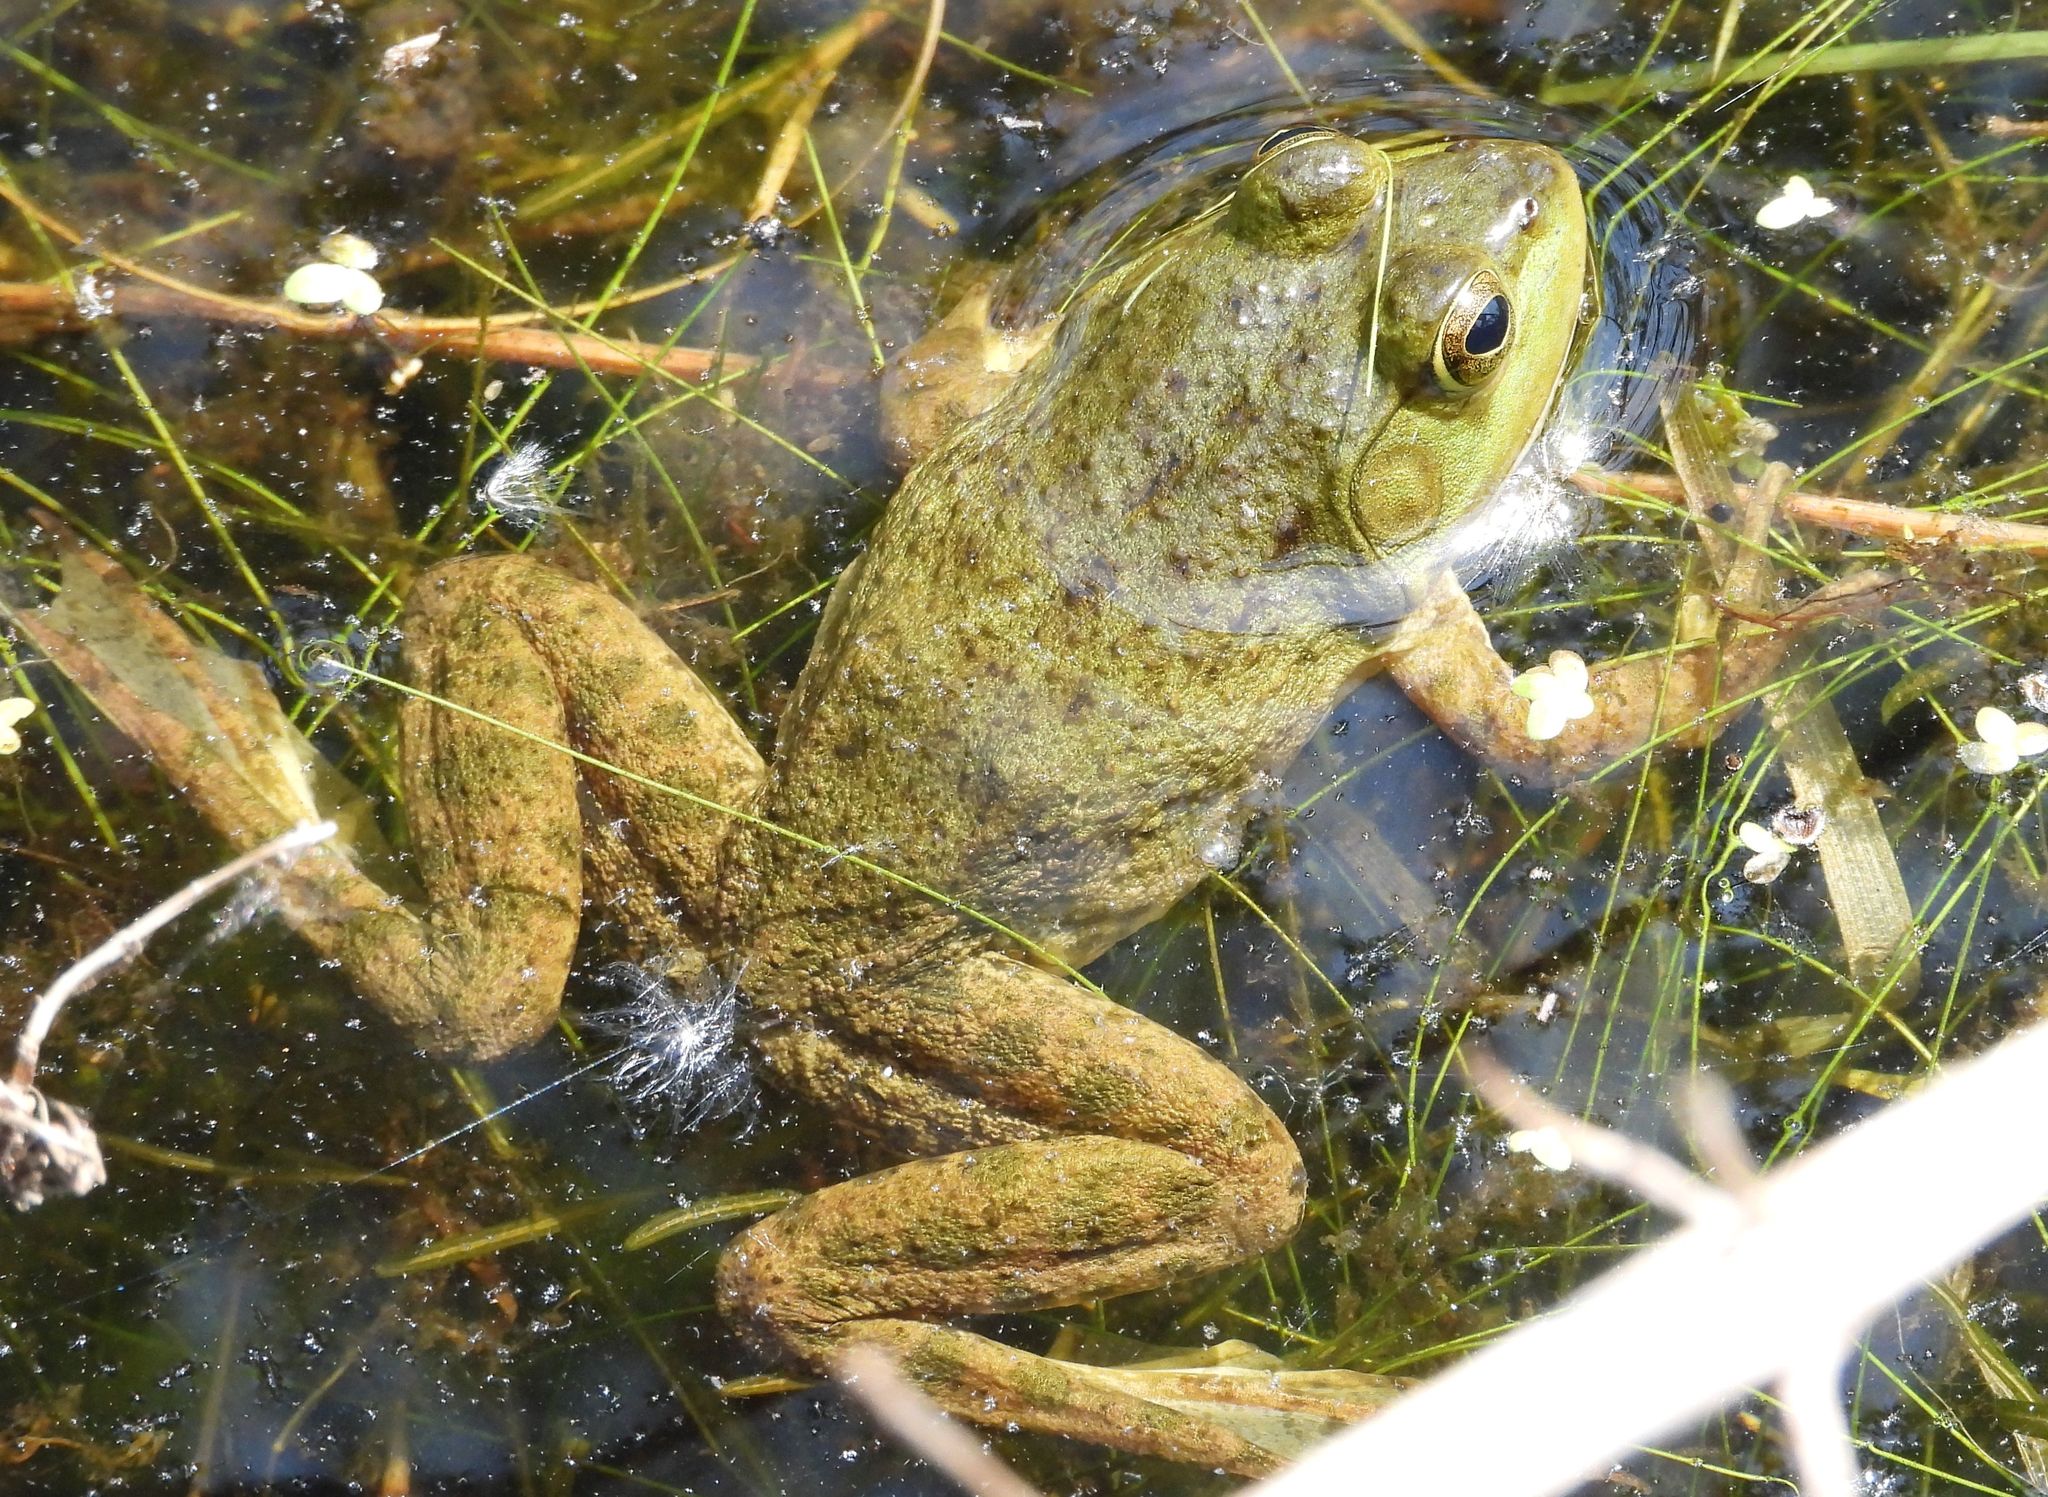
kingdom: Animalia
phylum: Chordata
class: Amphibia
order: Anura
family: Ranidae
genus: Lithobates
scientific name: Lithobates catesbeianus
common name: American bullfrog
